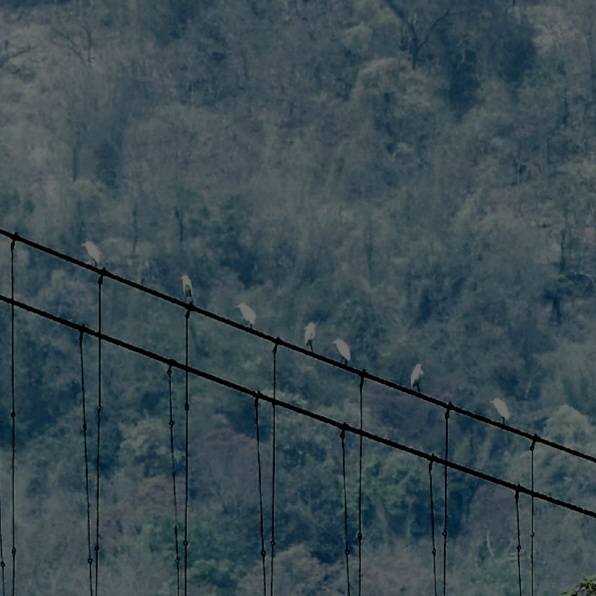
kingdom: Animalia
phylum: Chordata
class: Aves
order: Pelecaniformes
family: Ardeidae
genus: Bubulcus
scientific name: Bubulcus coromandus
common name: Eastern cattle egret
